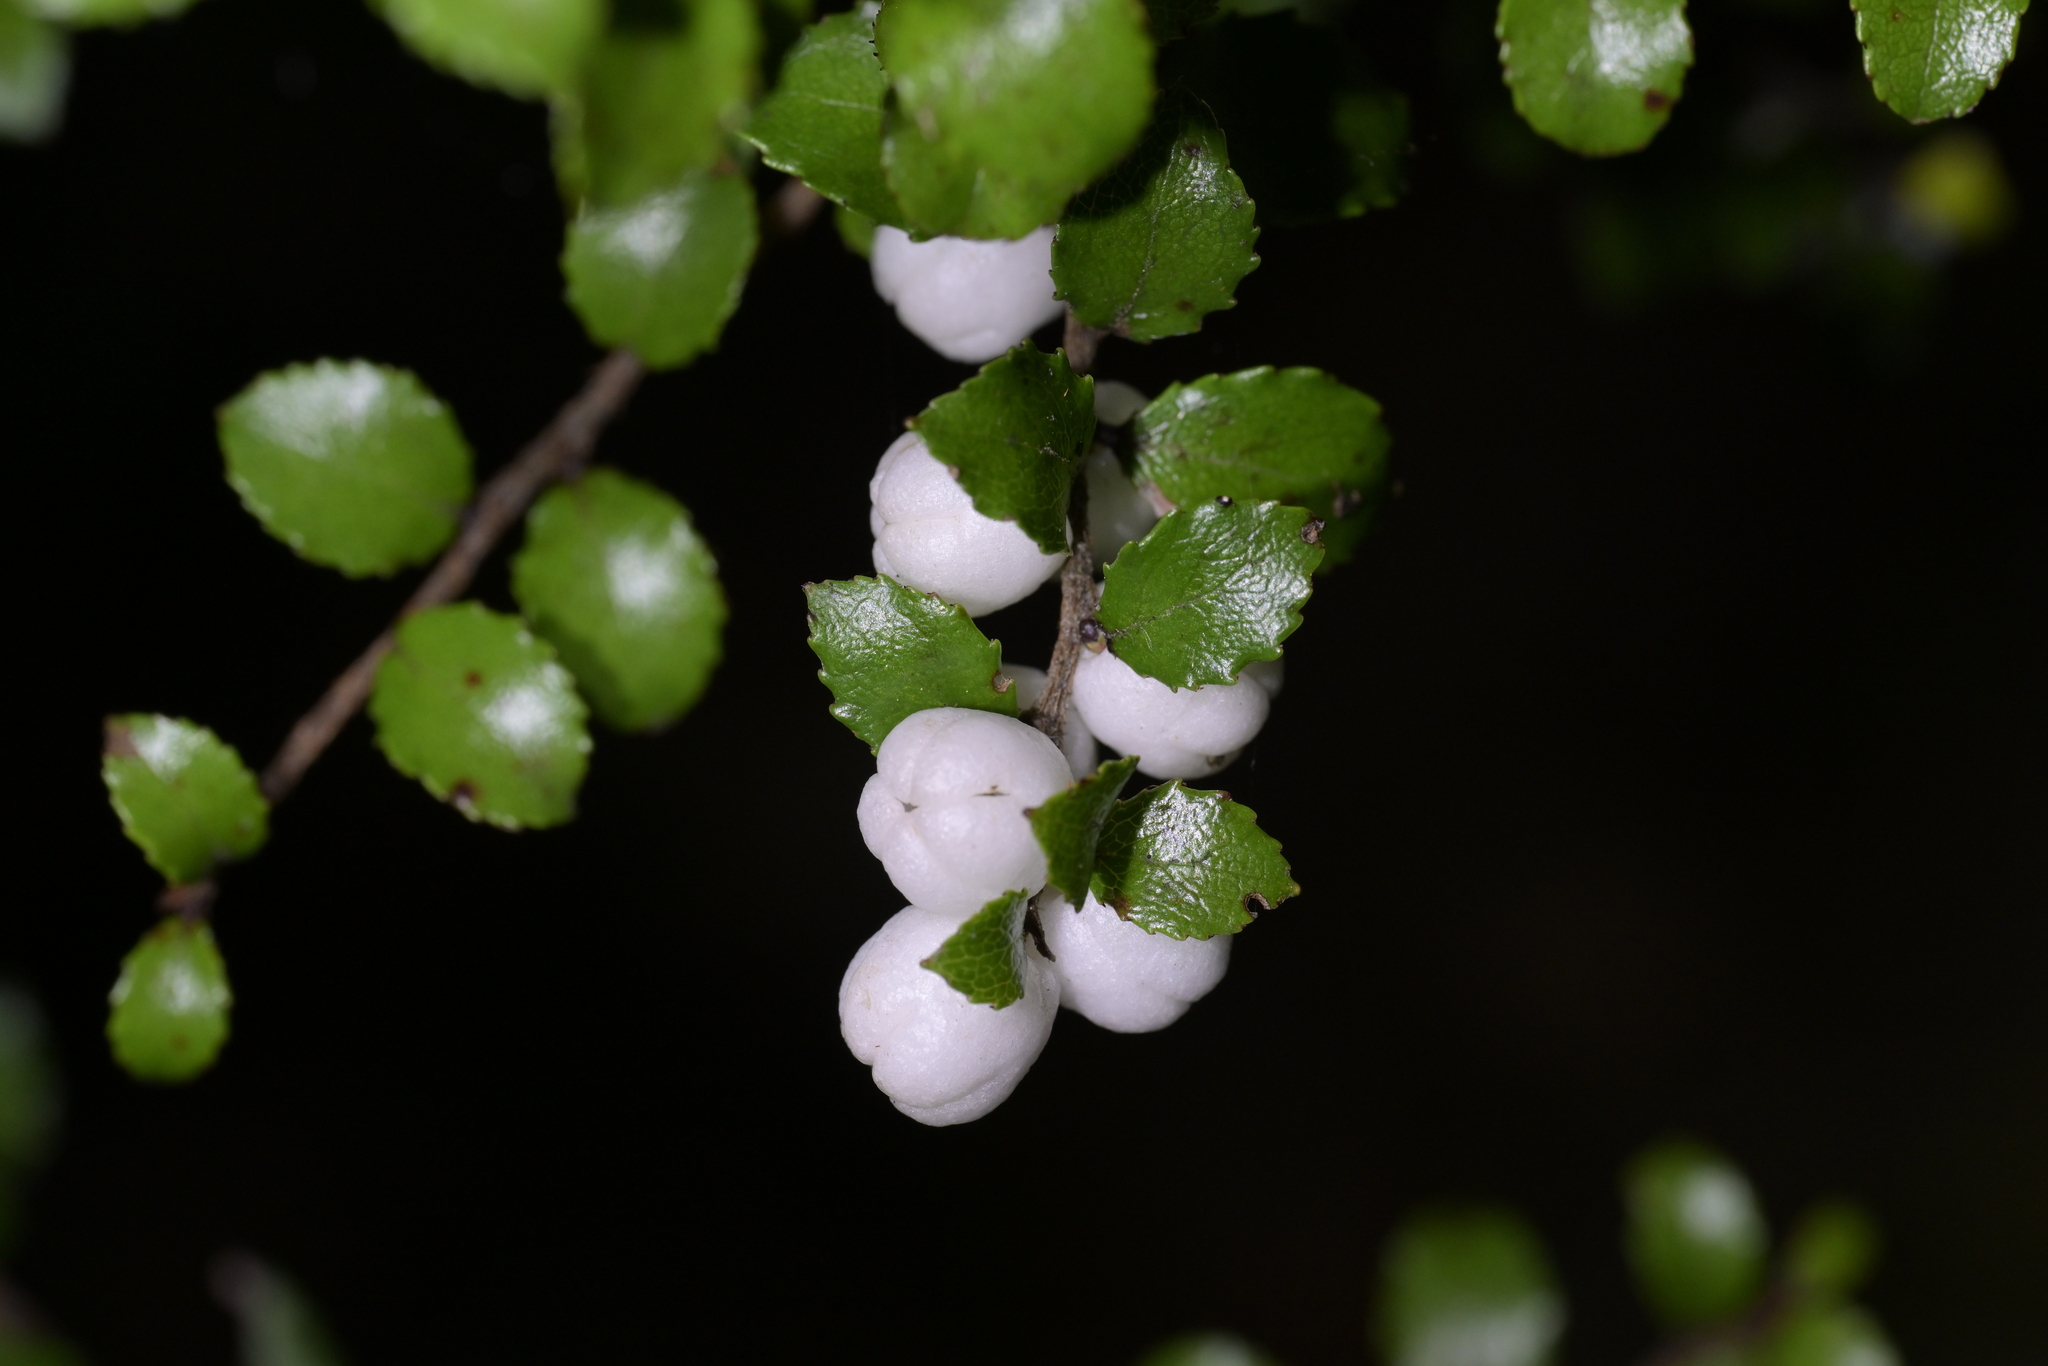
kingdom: Plantae
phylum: Tracheophyta
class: Magnoliopsida
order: Ericales
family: Ericaceae
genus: Gaultheria
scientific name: Gaultheria antipoda
